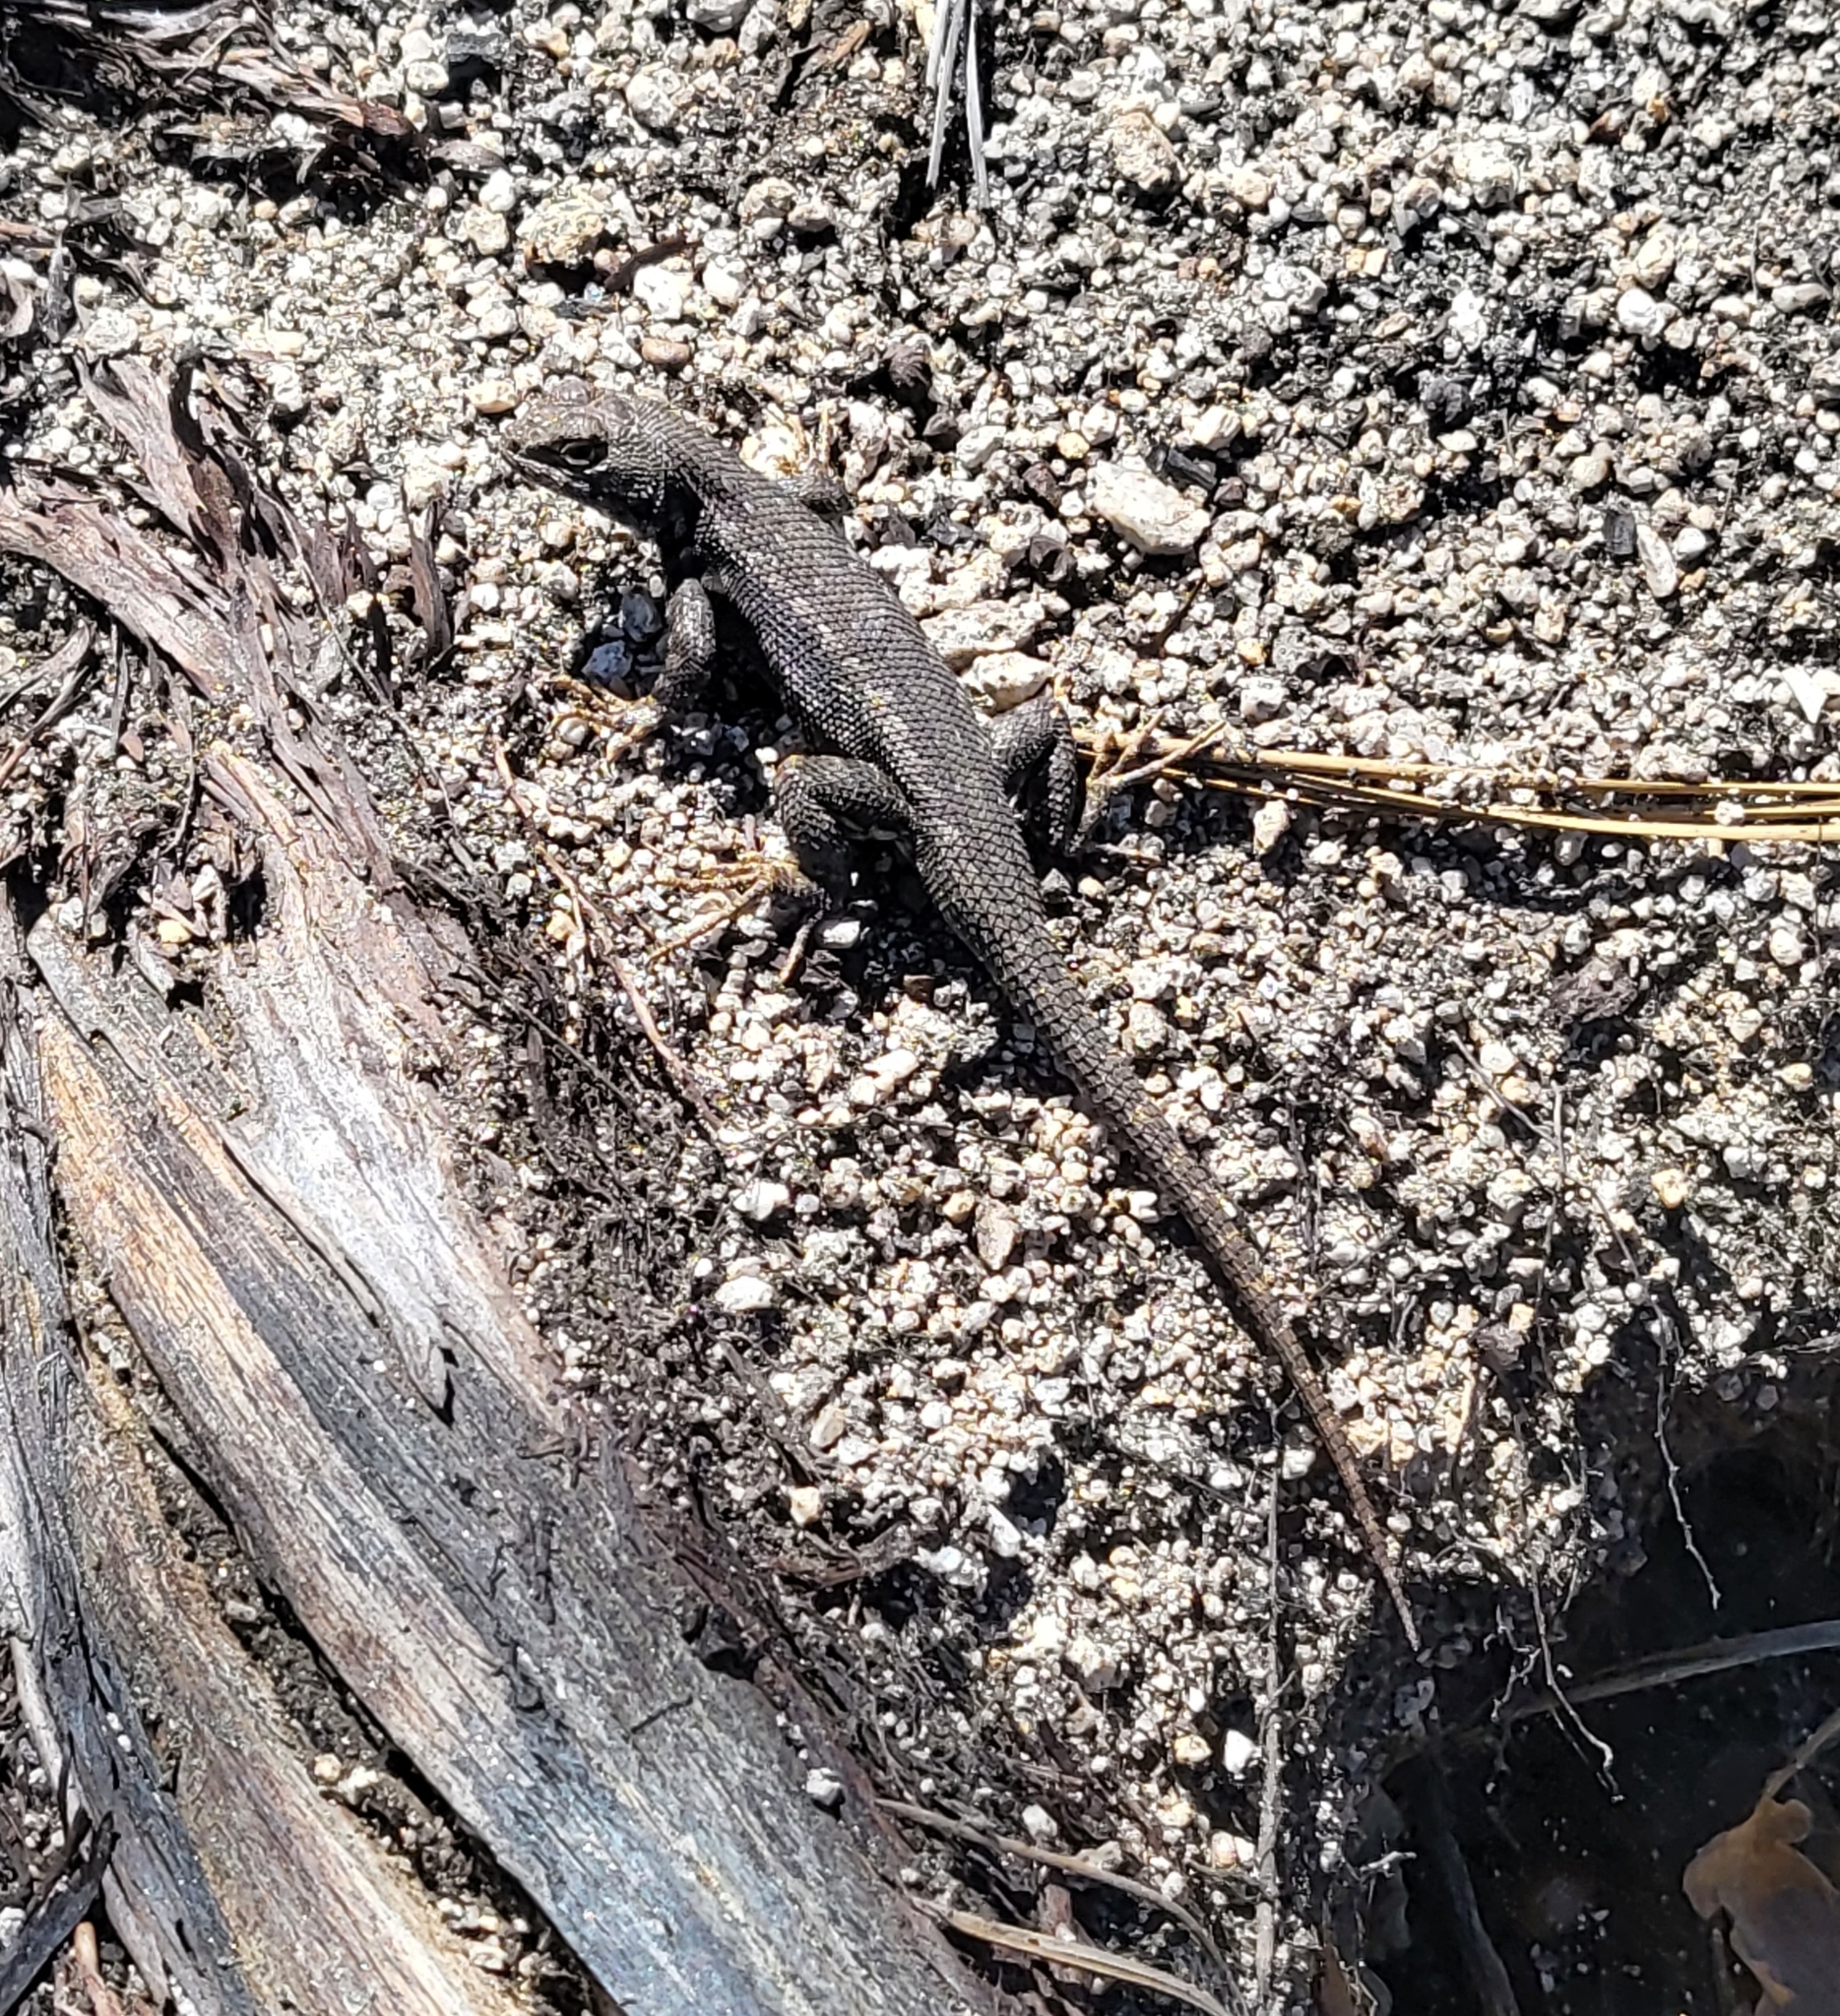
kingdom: Animalia
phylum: Chordata
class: Squamata
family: Phrynosomatidae
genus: Sceloporus
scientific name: Sceloporus graciosus
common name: Sagebrush lizard
